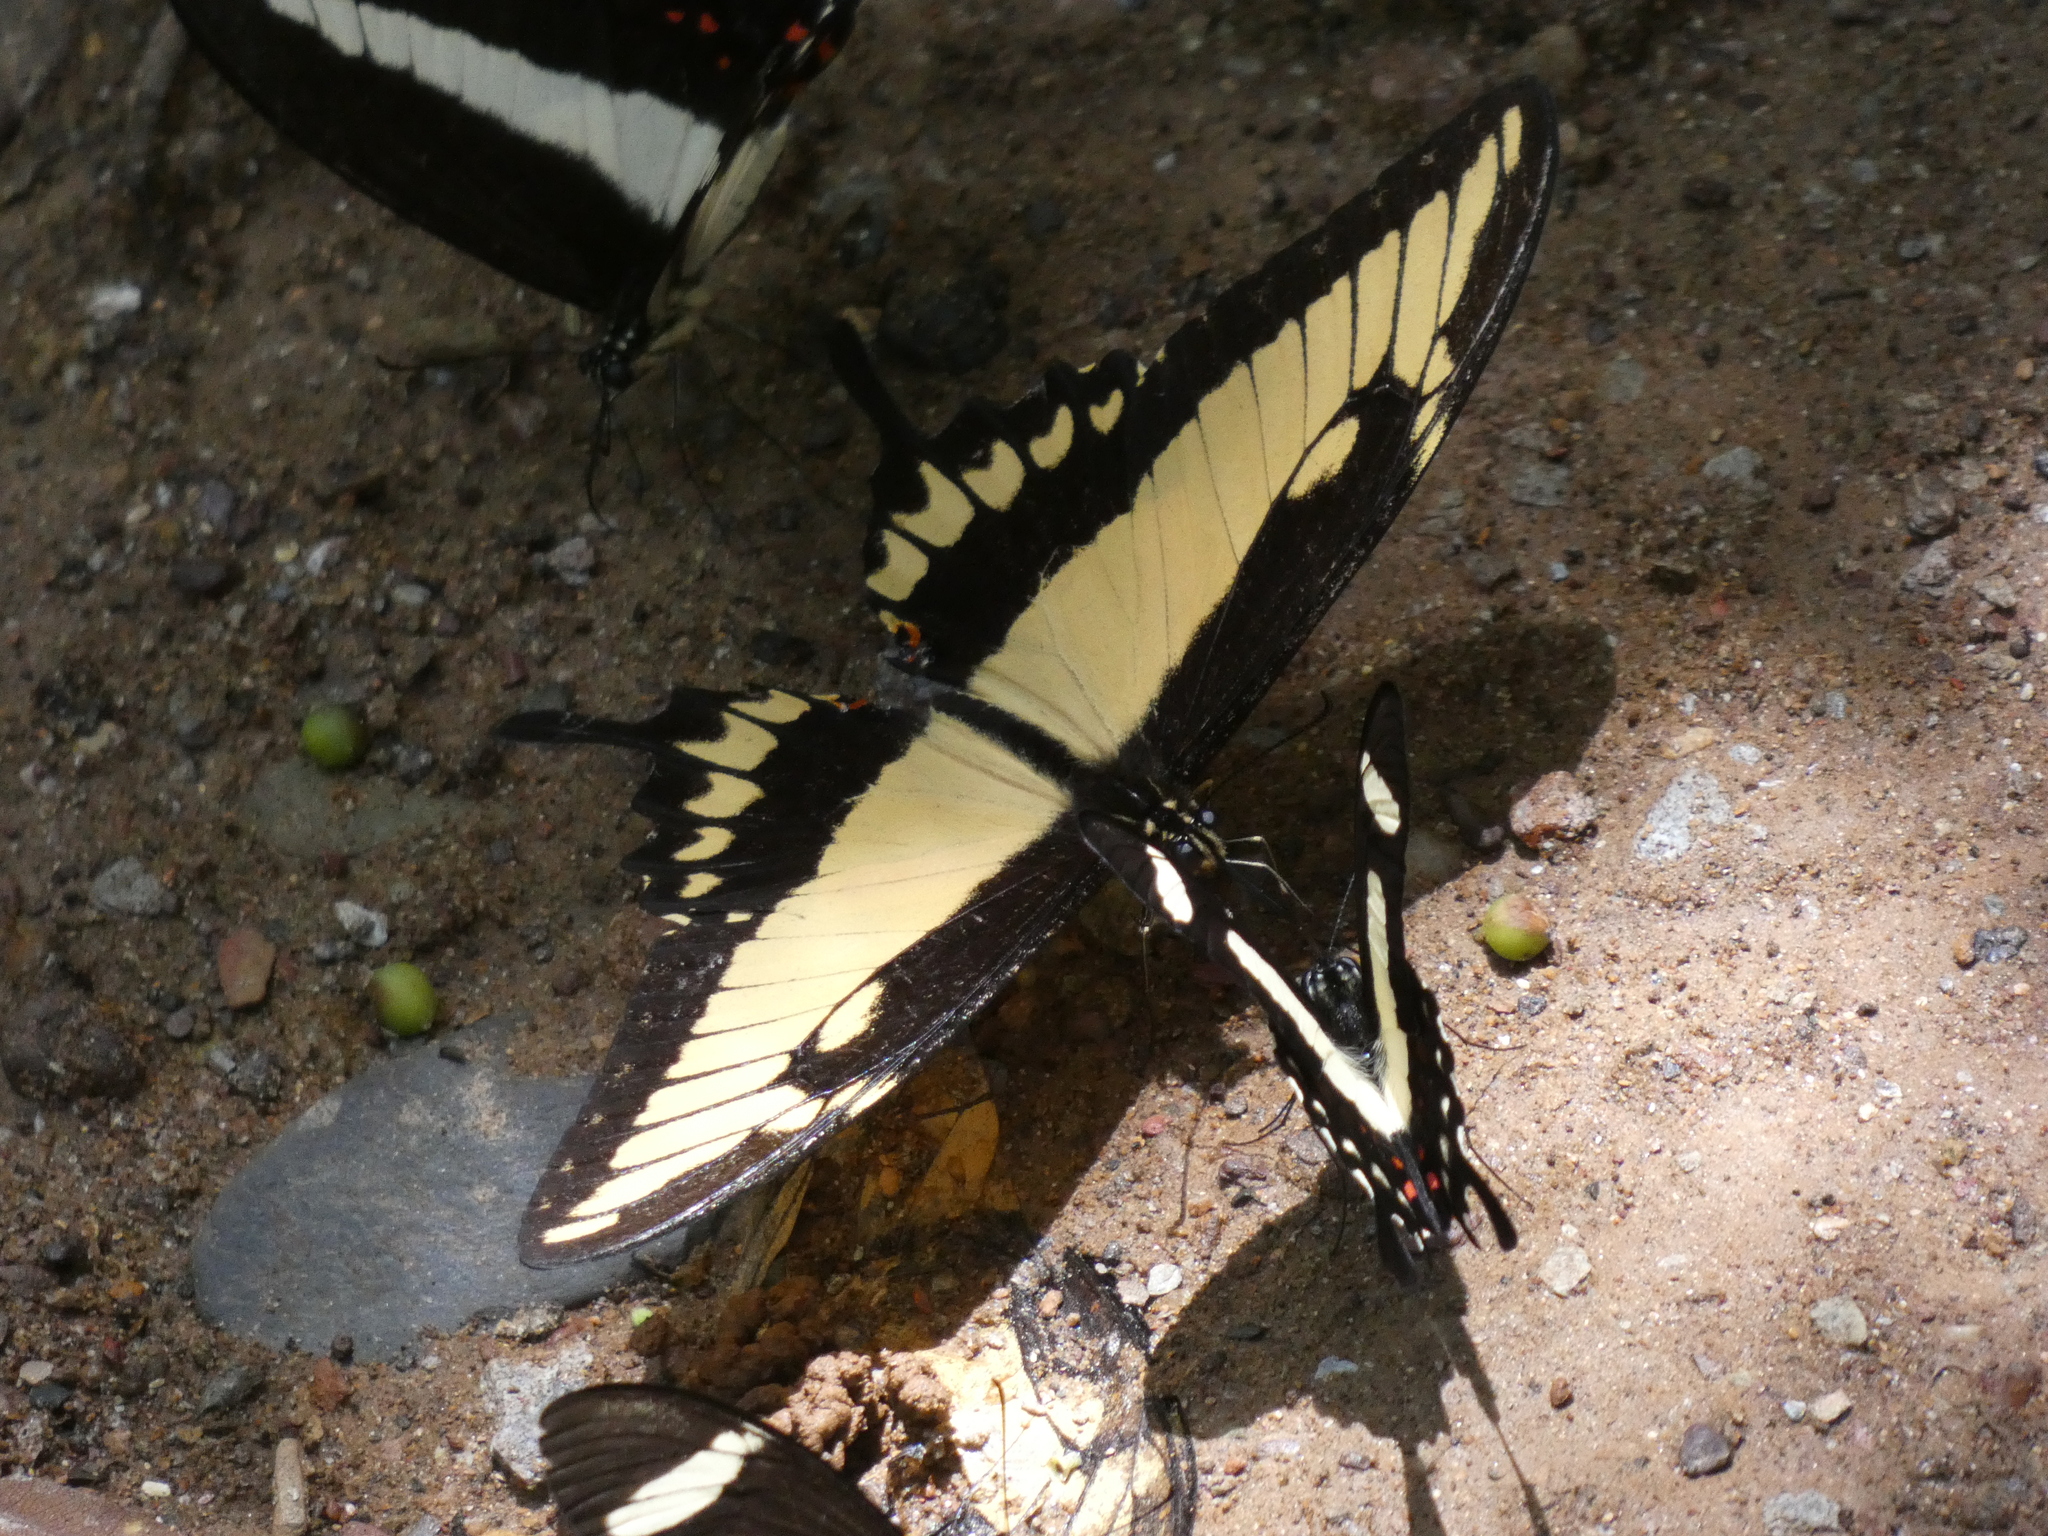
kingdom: Animalia
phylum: Arthropoda
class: Insecta
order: Lepidoptera
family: Papilionidae
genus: Papilio
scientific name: Papilio astyalus
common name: Astyalus swallowtail
